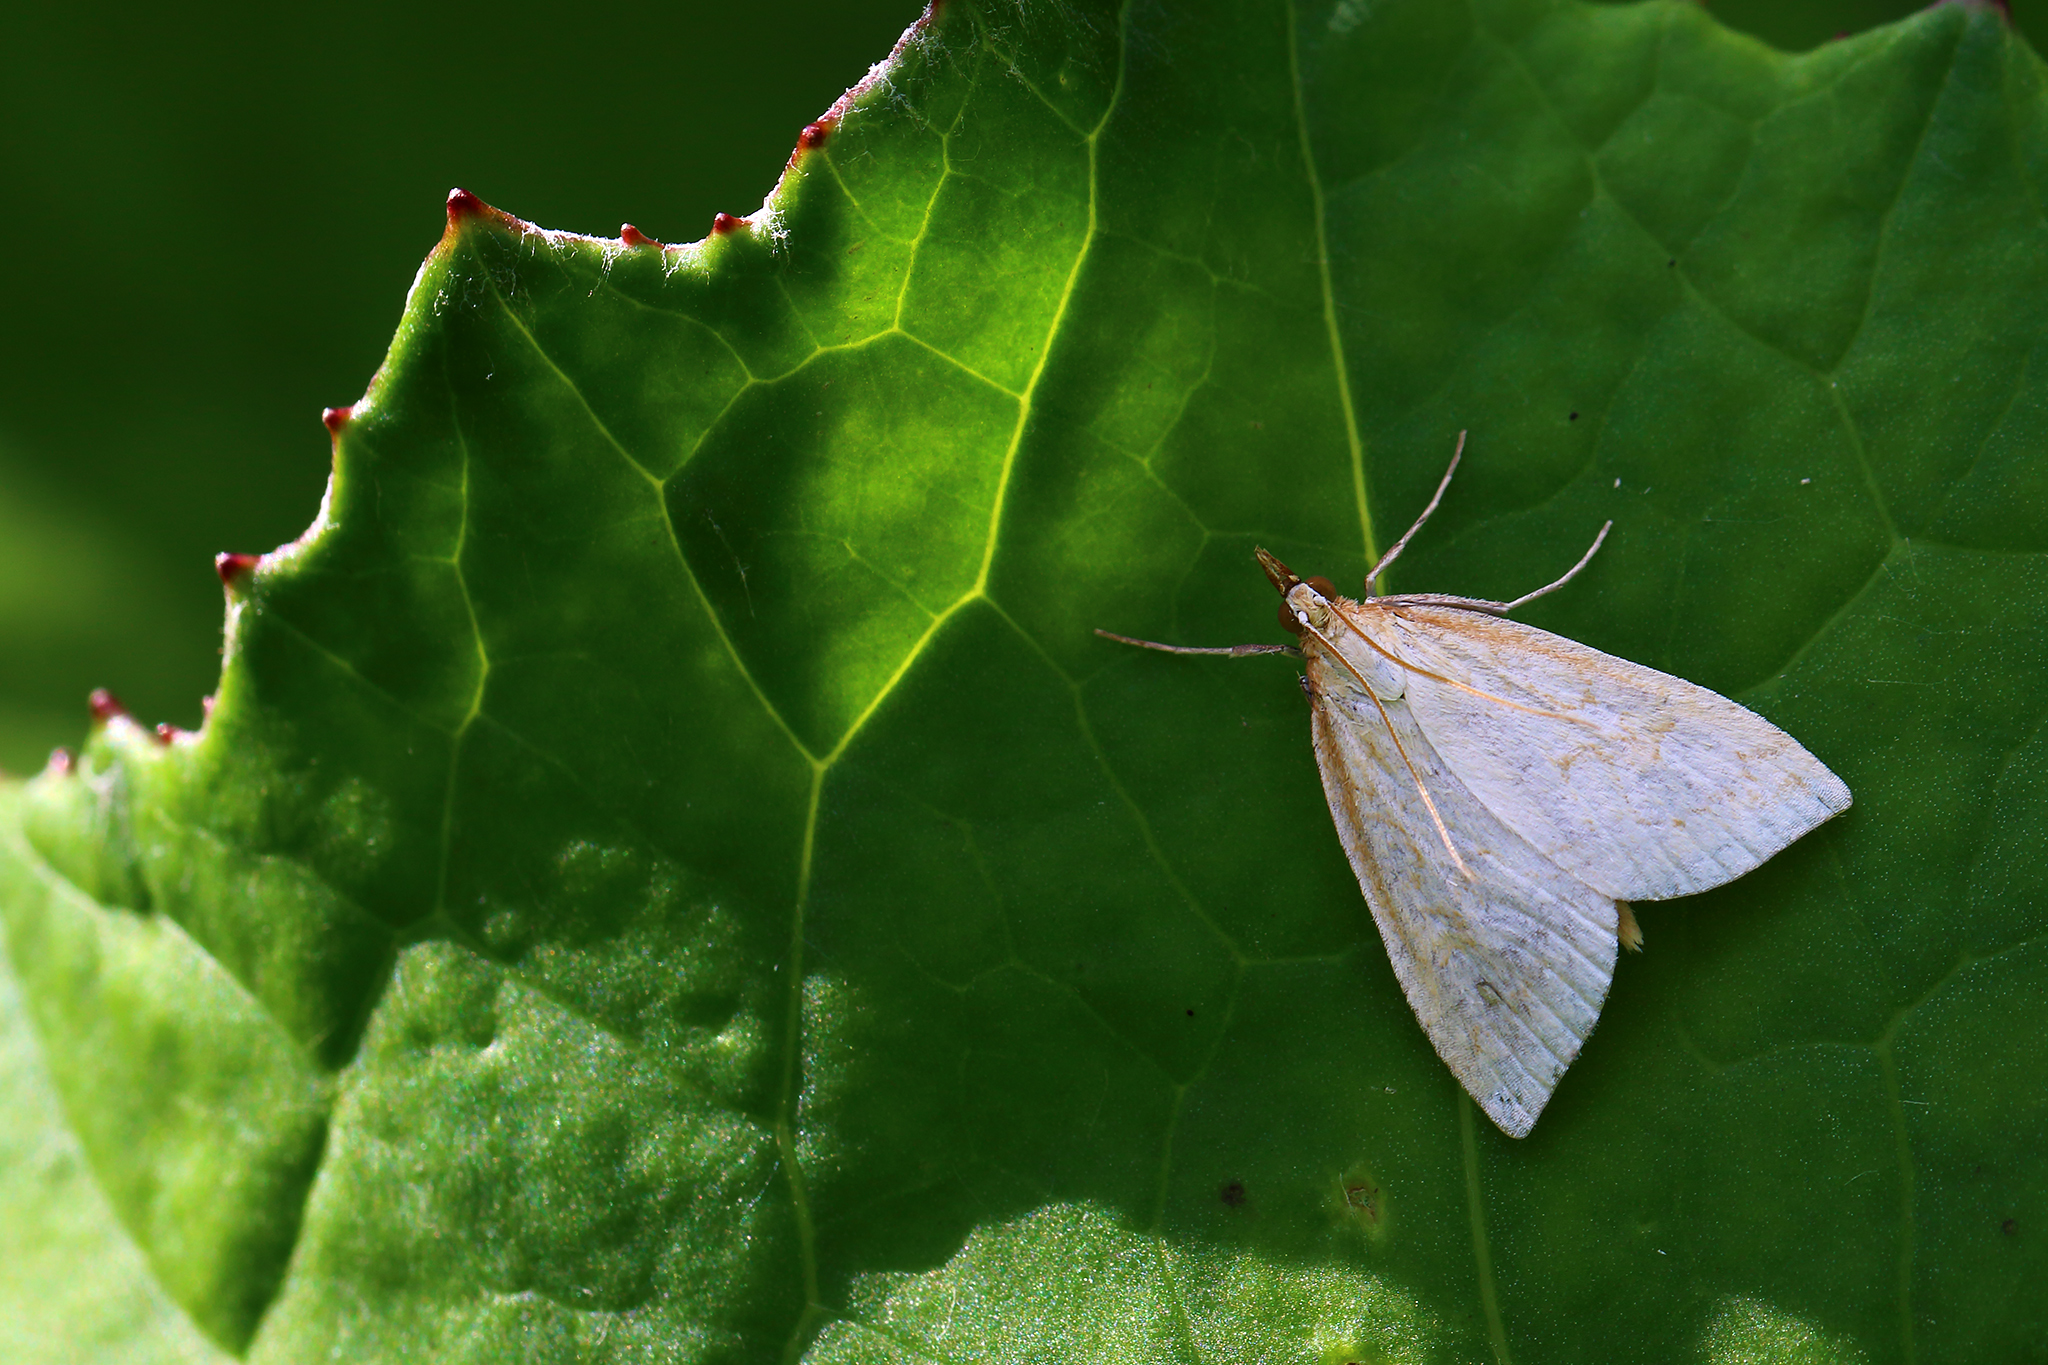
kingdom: Animalia
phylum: Arthropoda
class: Insecta
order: Lepidoptera
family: Crambidae
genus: Udea
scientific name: Udea lutealis
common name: Pale straw pearl
